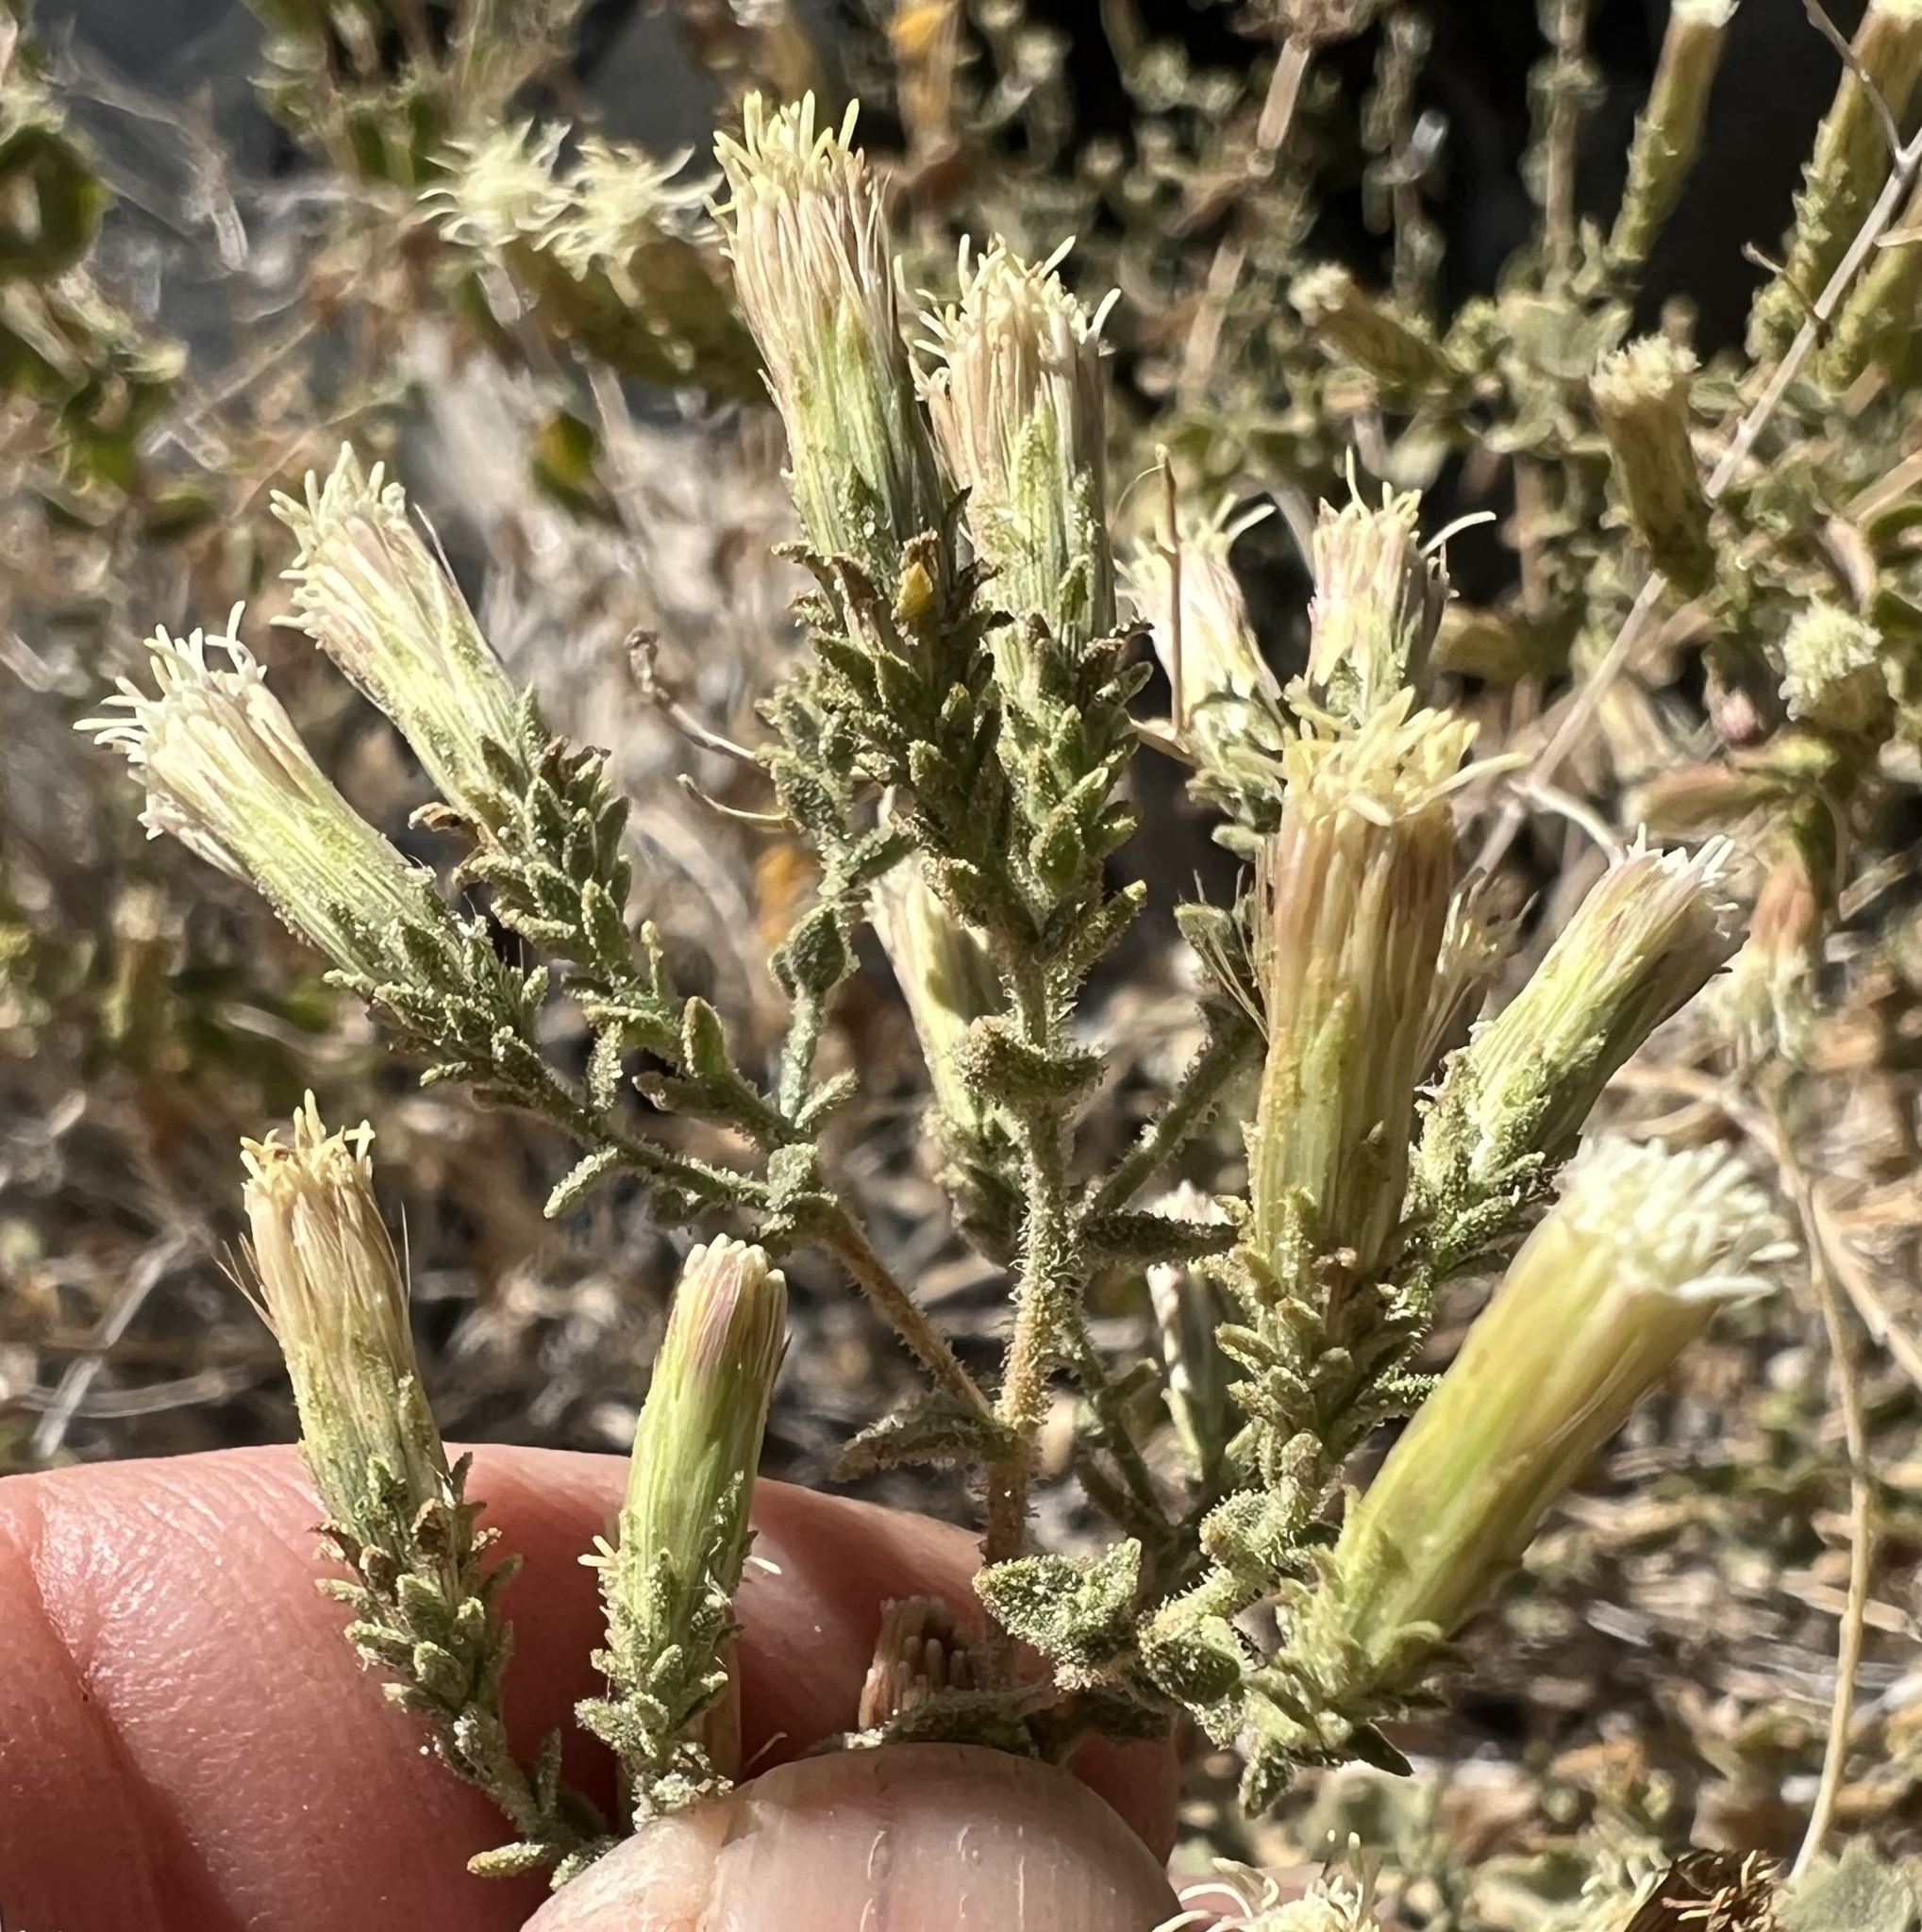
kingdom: Plantae
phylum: Tracheophyta
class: Magnoliopsida
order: Asterales
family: Asteraceae
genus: Brickellia
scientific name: Brickellia microphylla
